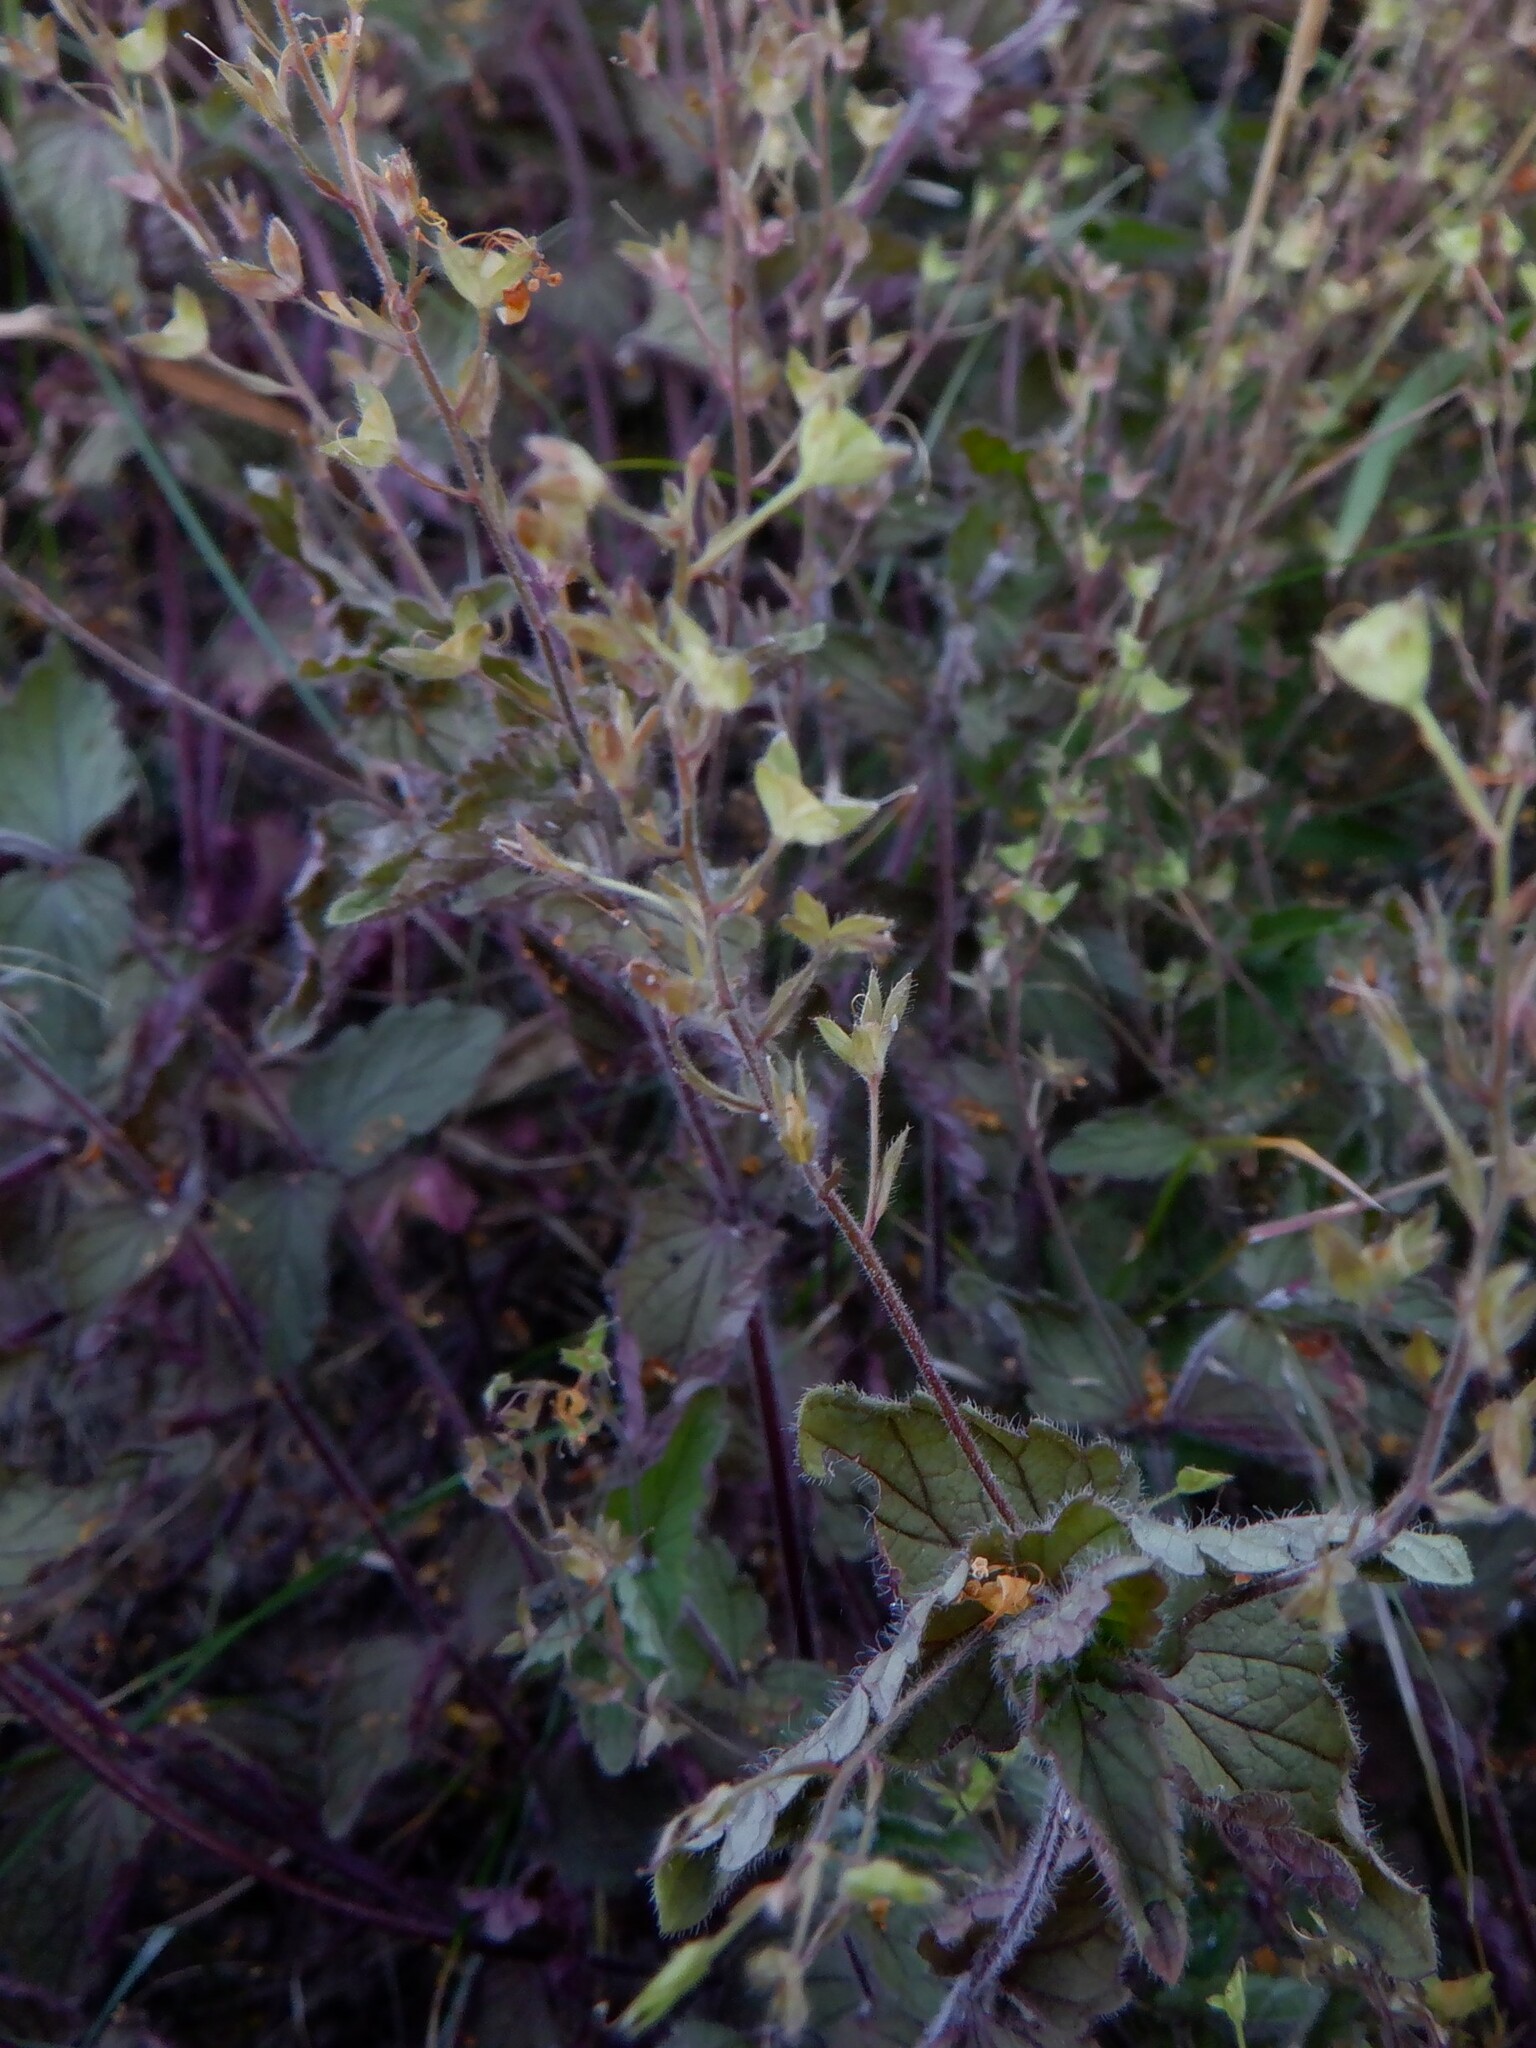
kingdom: Plantae
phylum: Tracheophyta
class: Magnoliopsida
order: Lamiales
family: Plantaginaceae
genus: Veronica
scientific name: Veronica chamaedrys
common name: Germander speedwell
